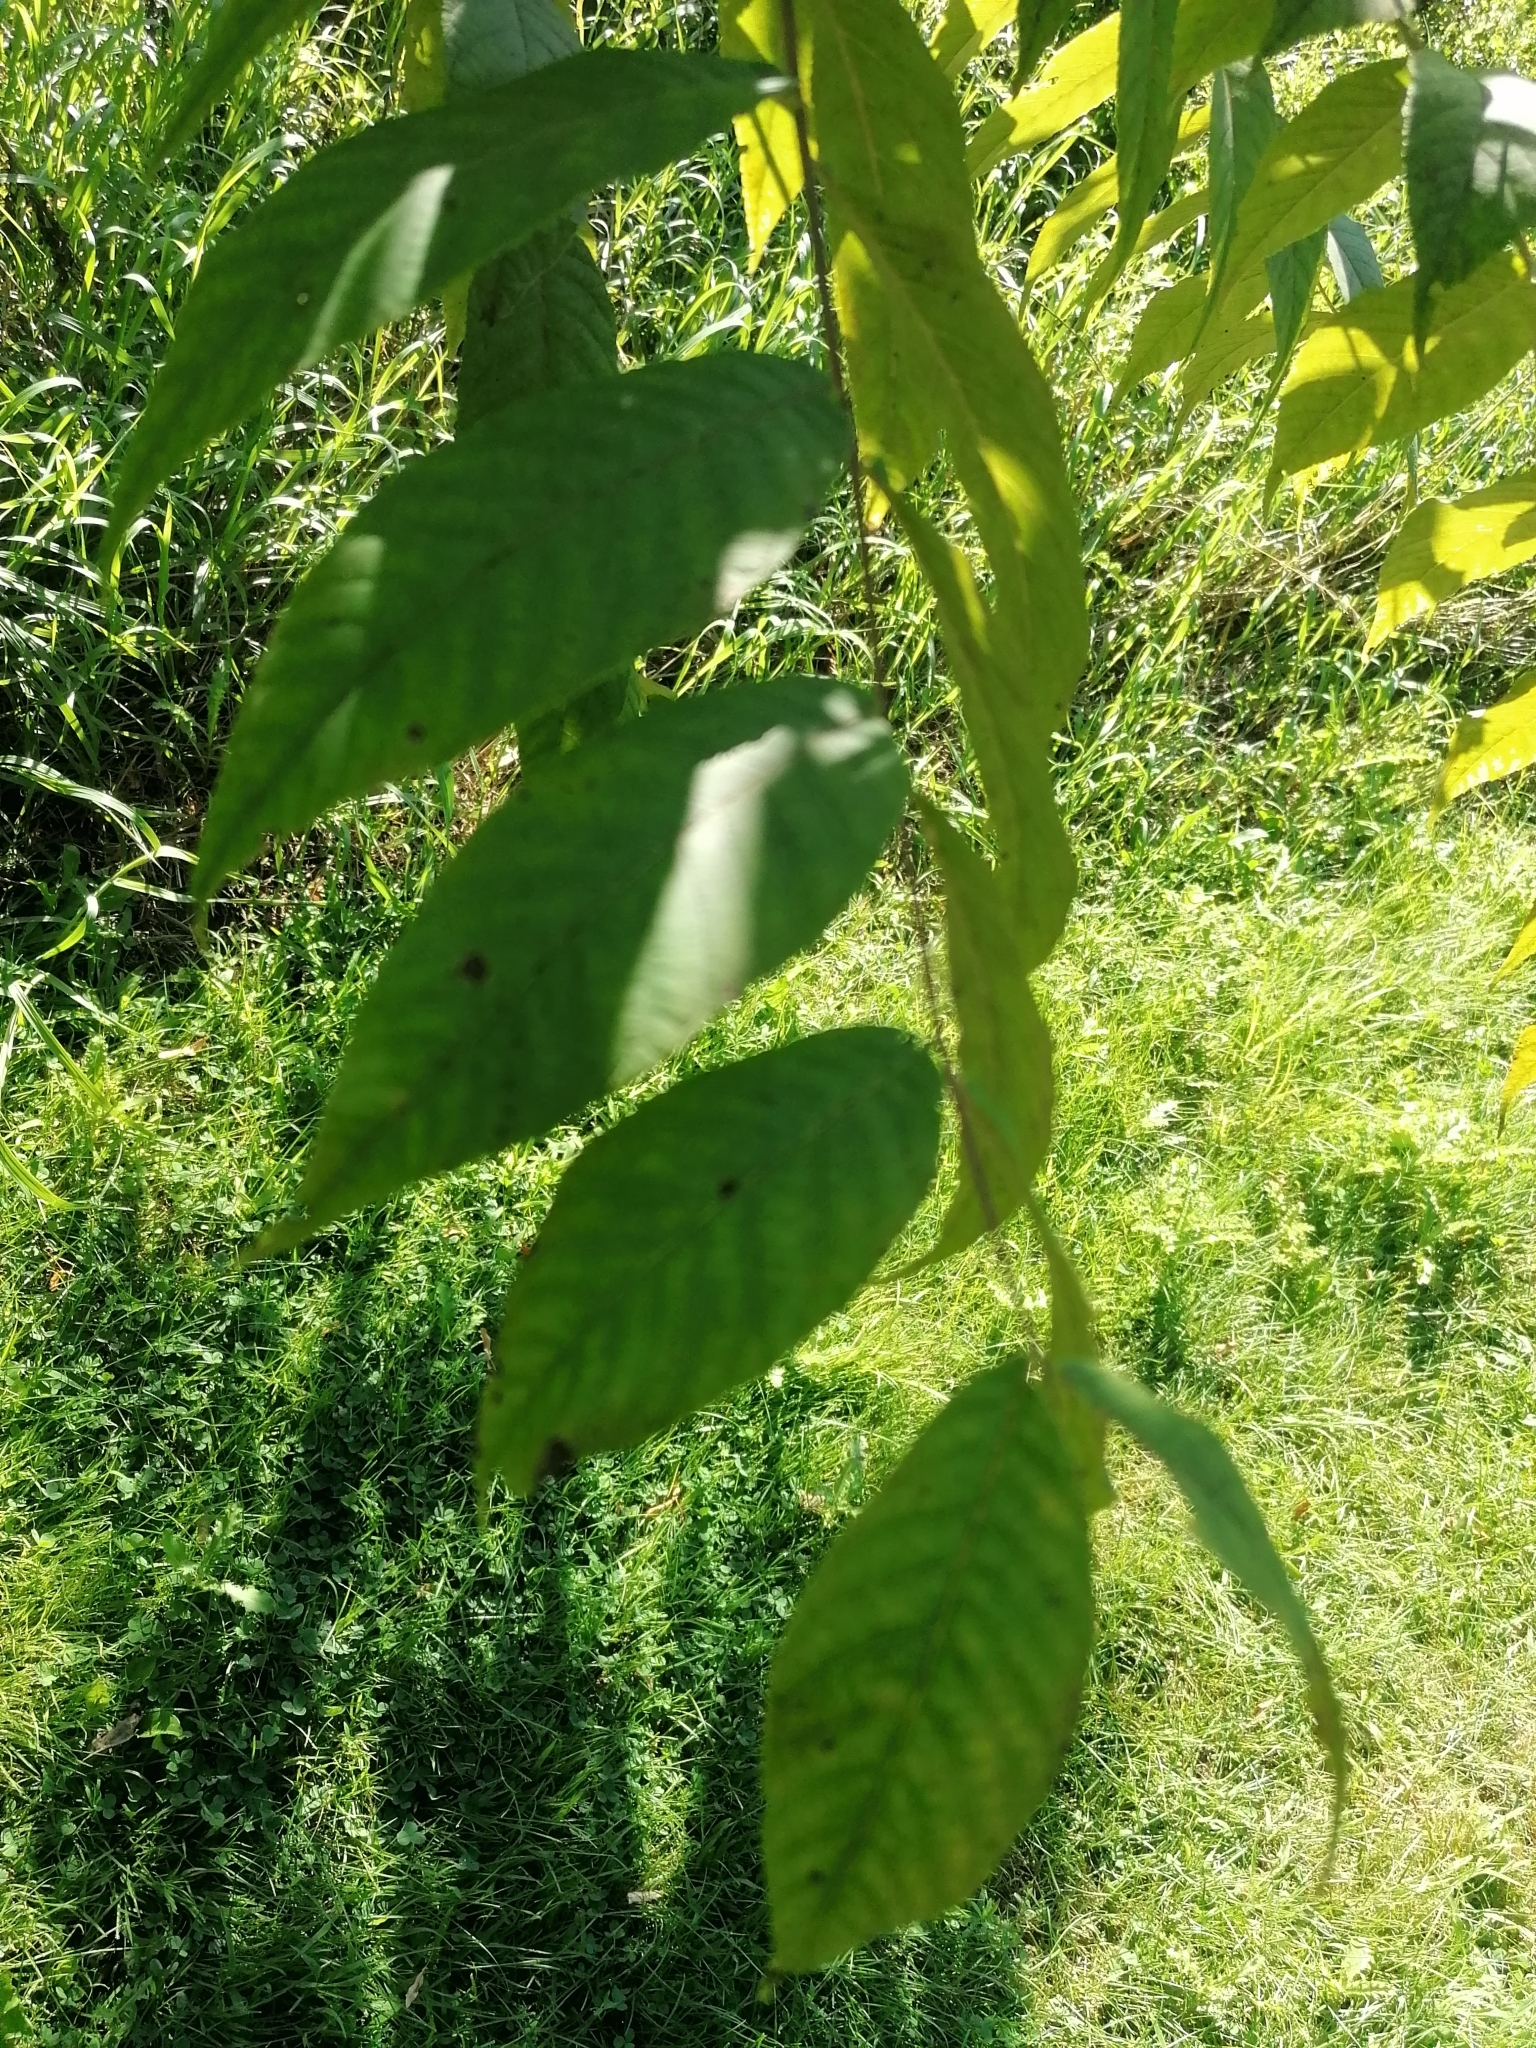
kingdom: Plantae
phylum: Tracheophyta
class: Magnoliopsida
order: Fagales
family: Juglandaceae
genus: Juglans
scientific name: Juglans nigra
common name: Black walnut
